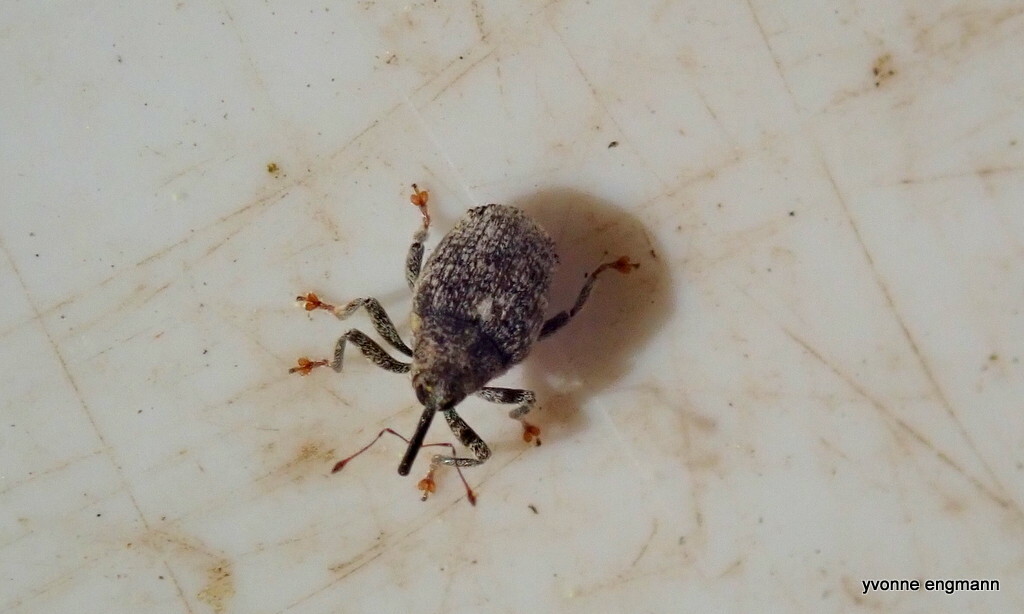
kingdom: Animalia
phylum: Arthropoda
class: Insecta
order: Coleoptera
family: Curculionidae
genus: Ceutorhynchus
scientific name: Ceutorhynchus pallidactylus
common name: Cabbage stem weavil
